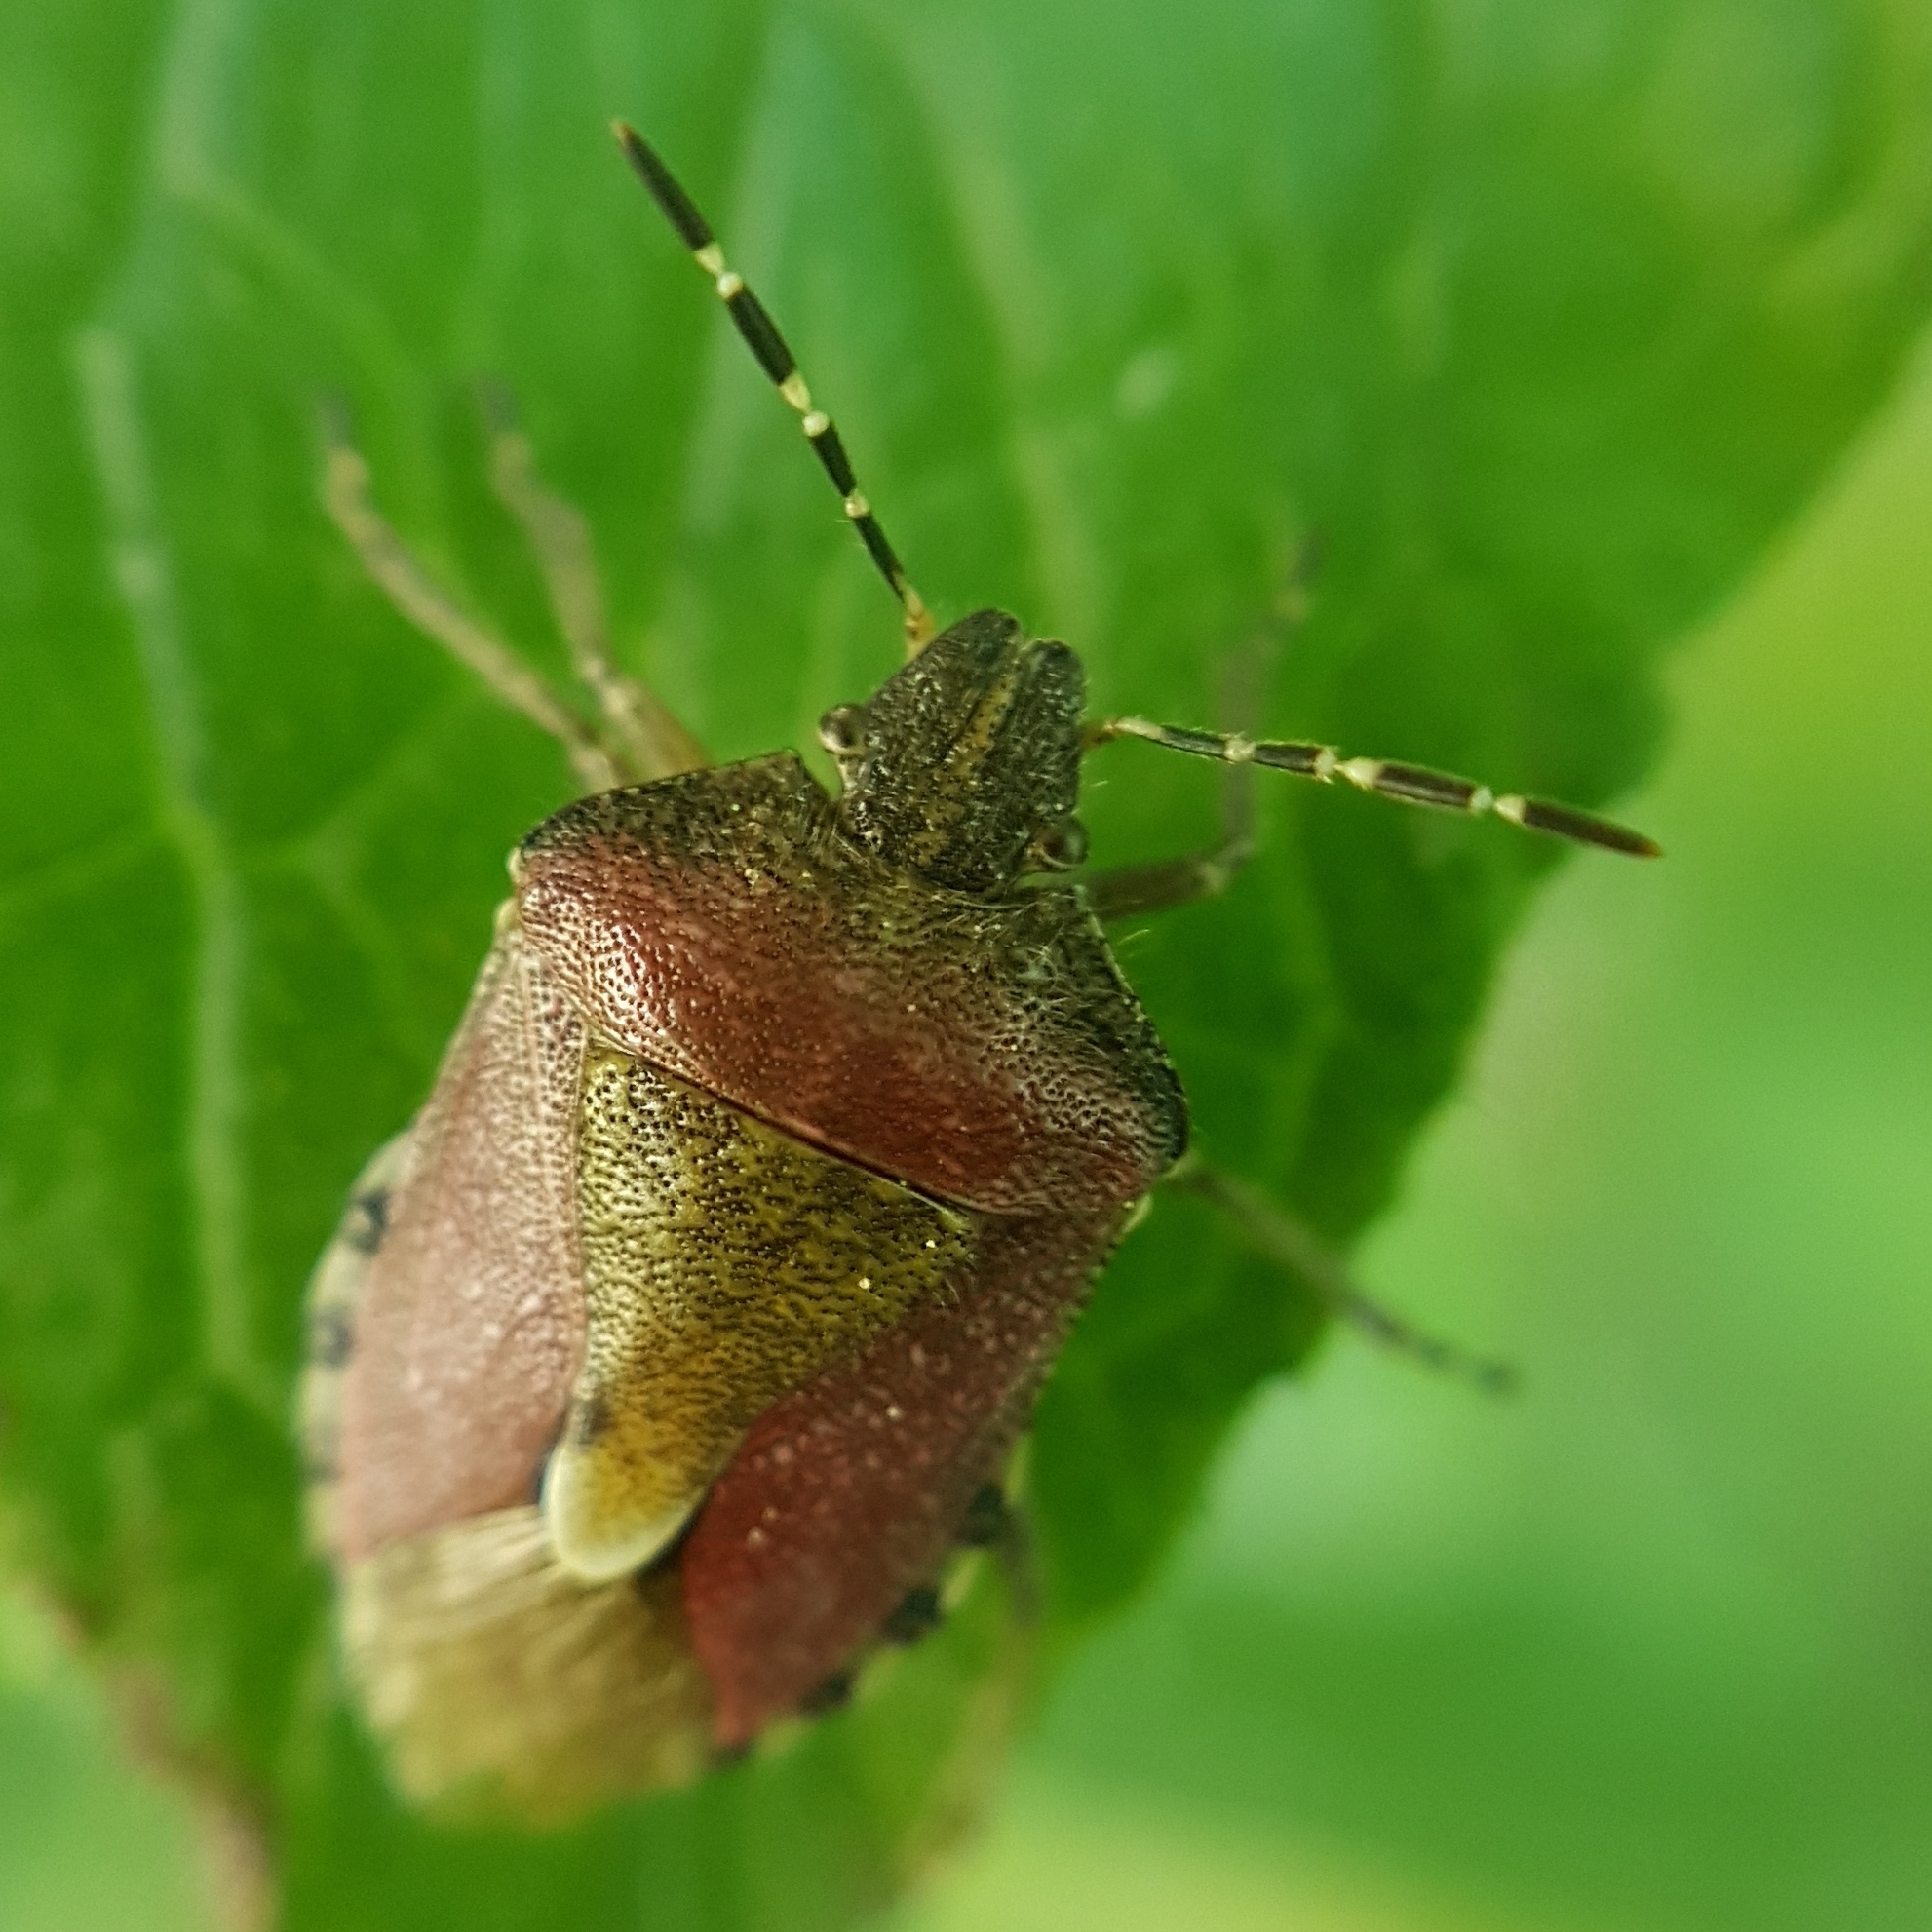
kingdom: Animalia
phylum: Arthropoda
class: Insecta
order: Hemiptera
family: Pentatomidae
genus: Dolycoris
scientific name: Dolycoris baccarum
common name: Sloe bug
